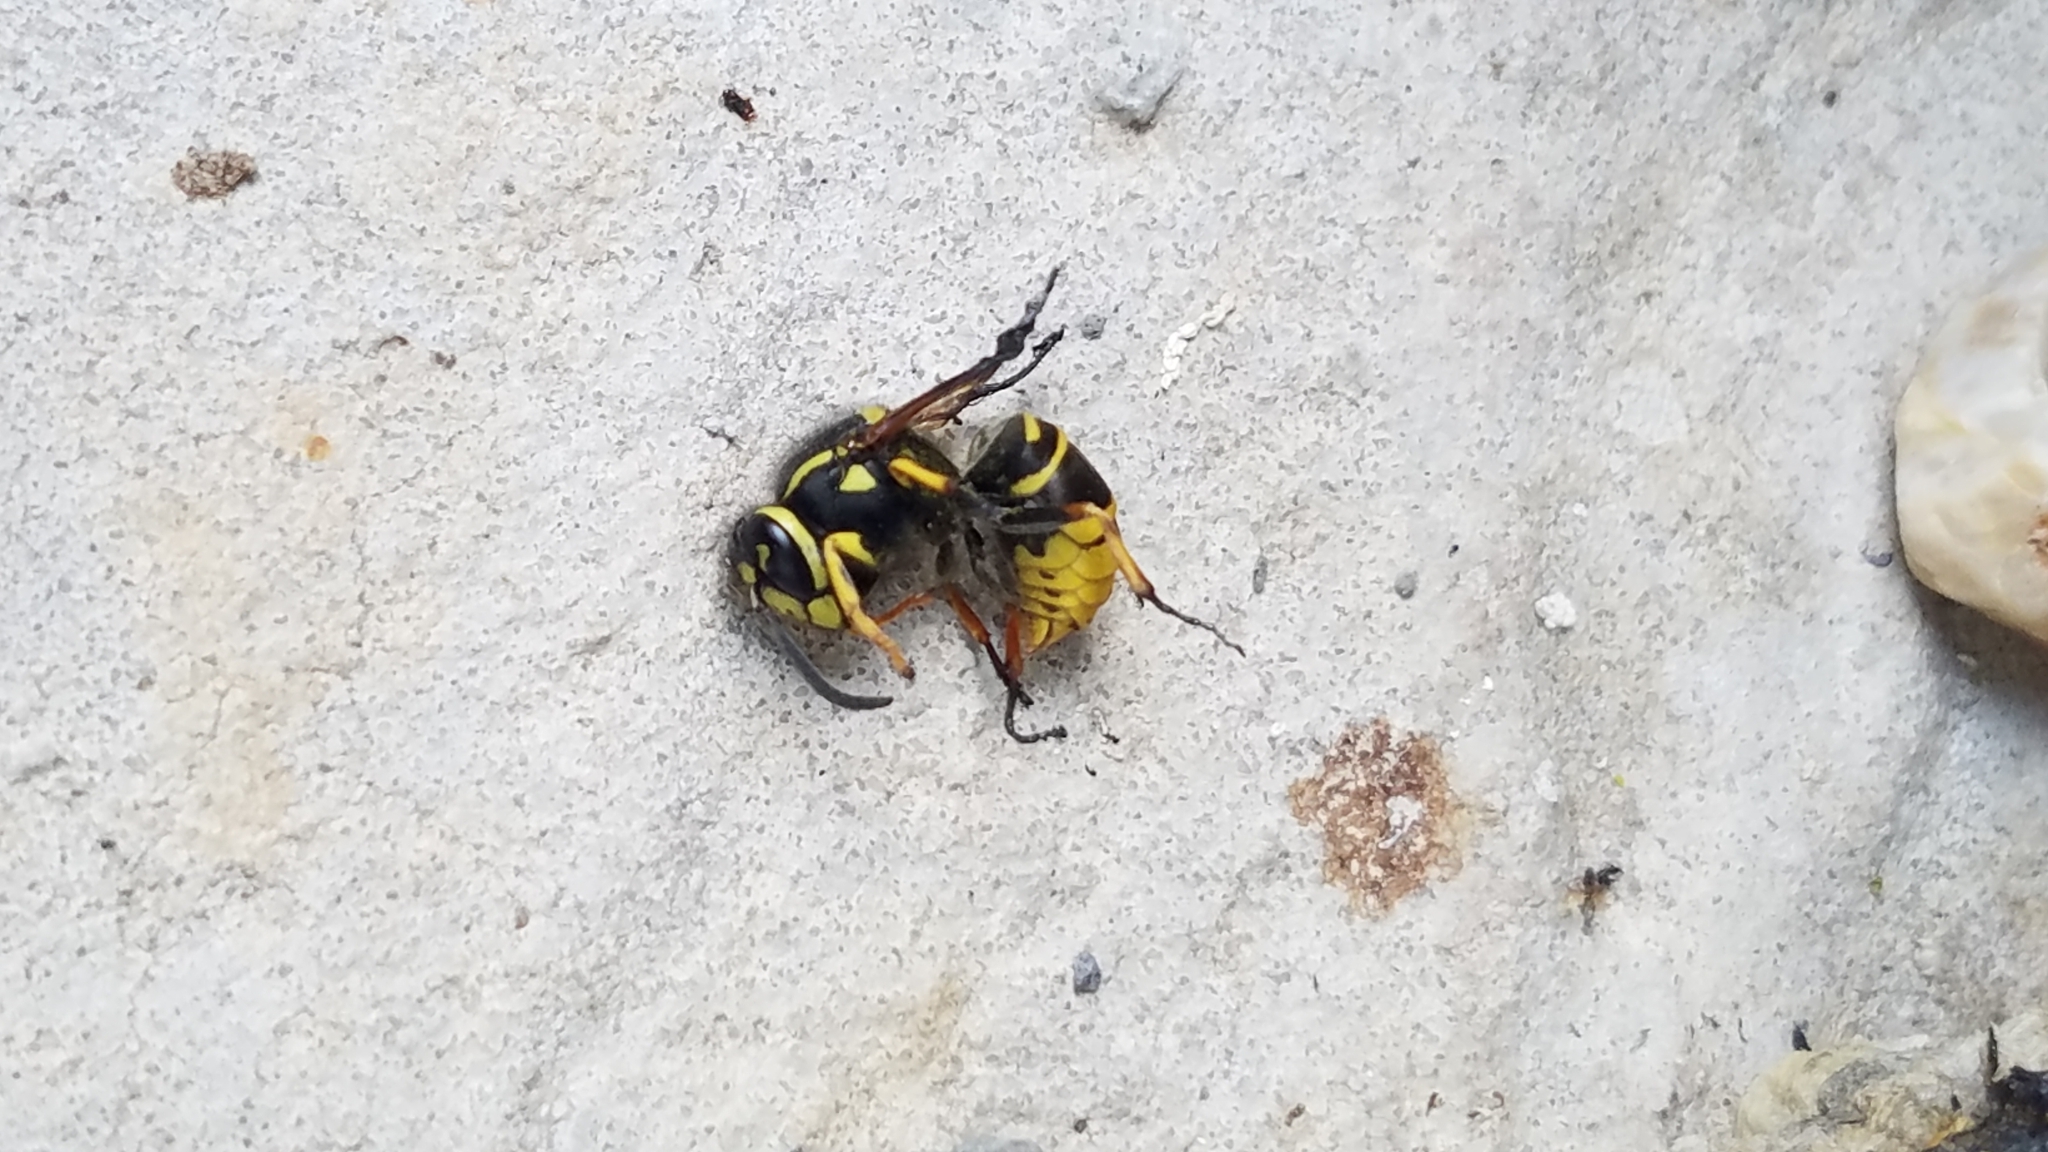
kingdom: Animalia
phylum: Arthropoda
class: Insecta
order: Hymenoptera
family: Vespidae
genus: Vespula
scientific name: Vespula vidua
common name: Widow yellowjacket
